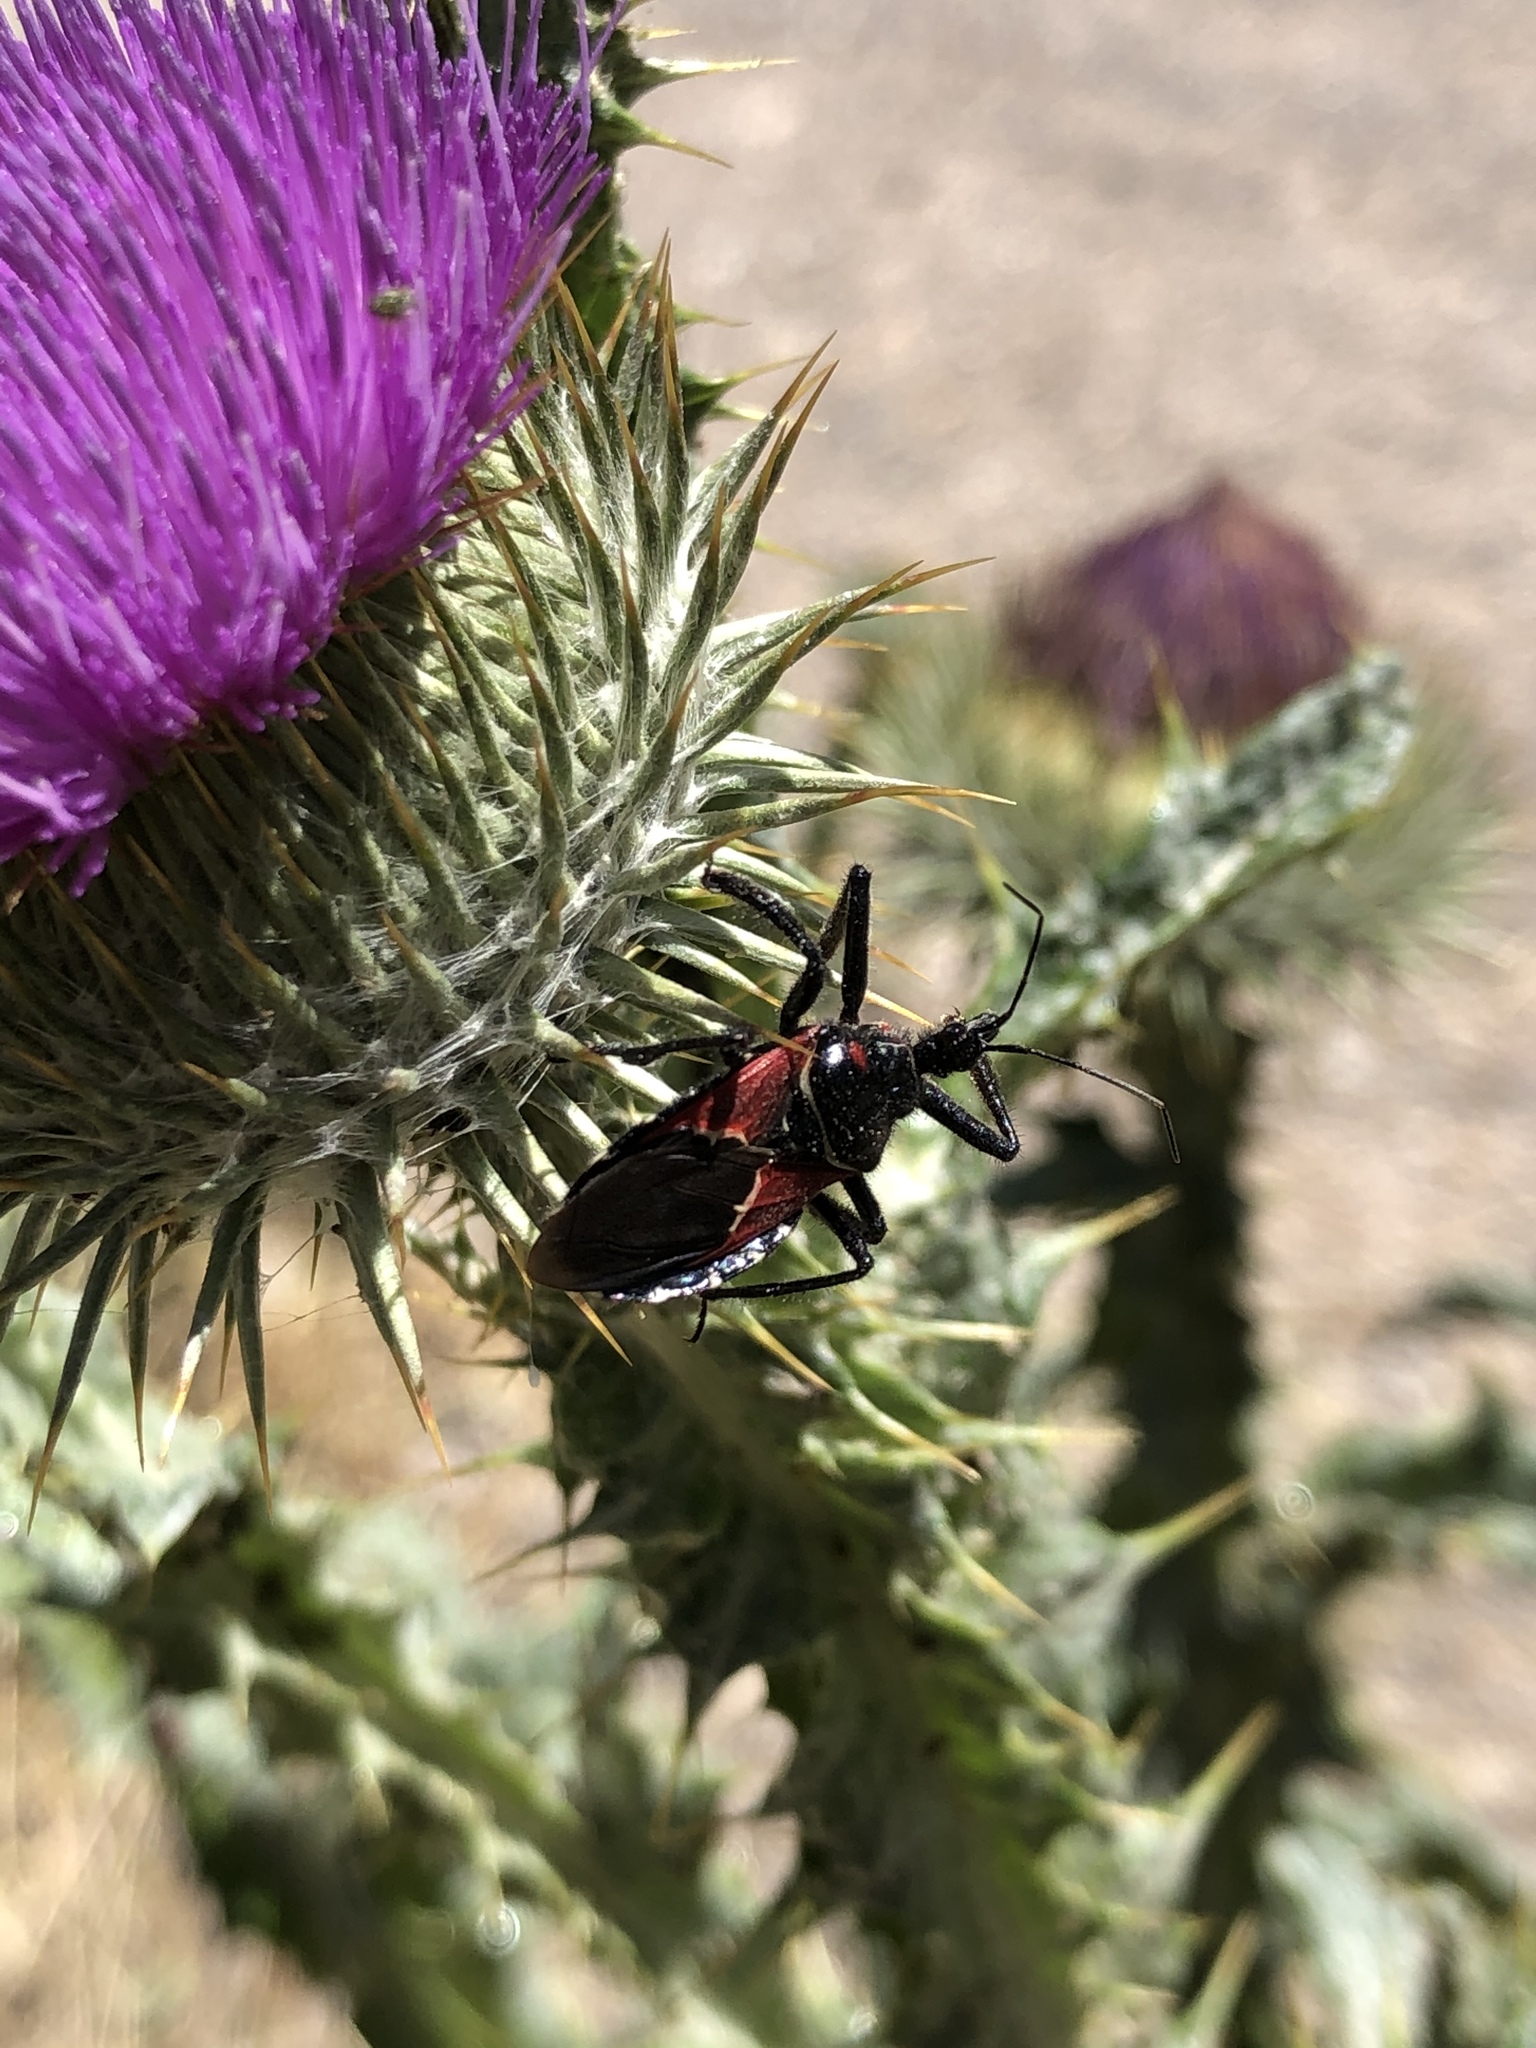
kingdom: Animalia
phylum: Arthropoda
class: Insecta
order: Hemiptera
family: Reduviidae
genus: Apiomerus
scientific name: Apiomerus montanus
